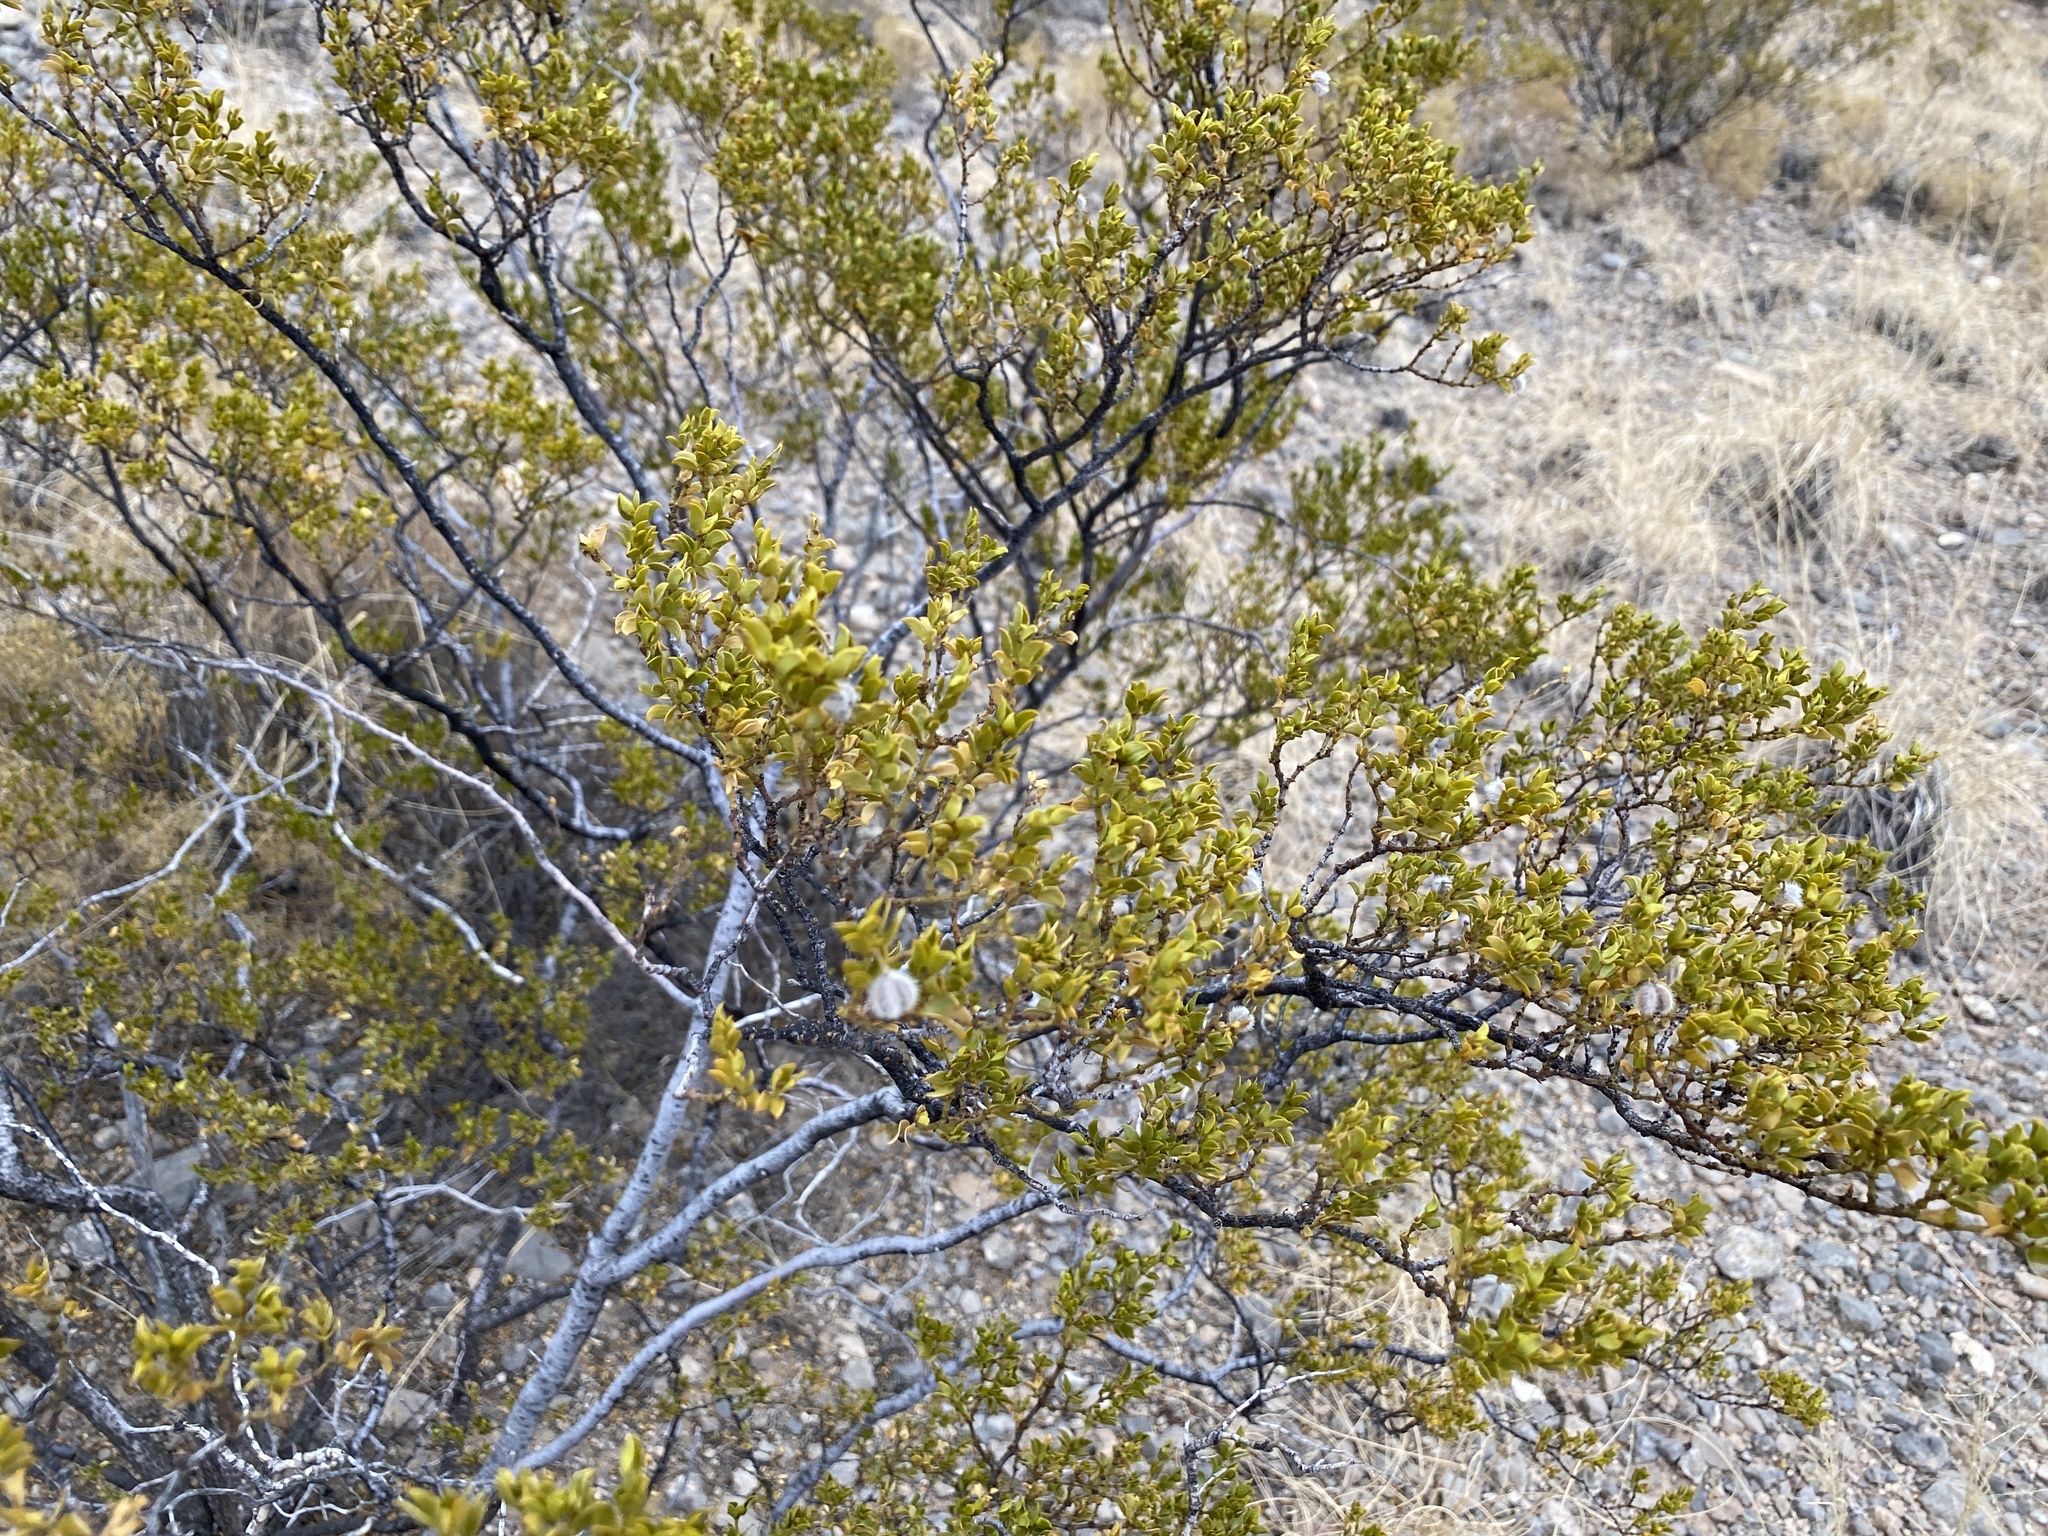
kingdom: Plantae
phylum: Tracheophyta
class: Magnoliopsida
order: Zygophyllales
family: Zygophyllaceae
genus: Larrea
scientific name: Larrea tridentata
